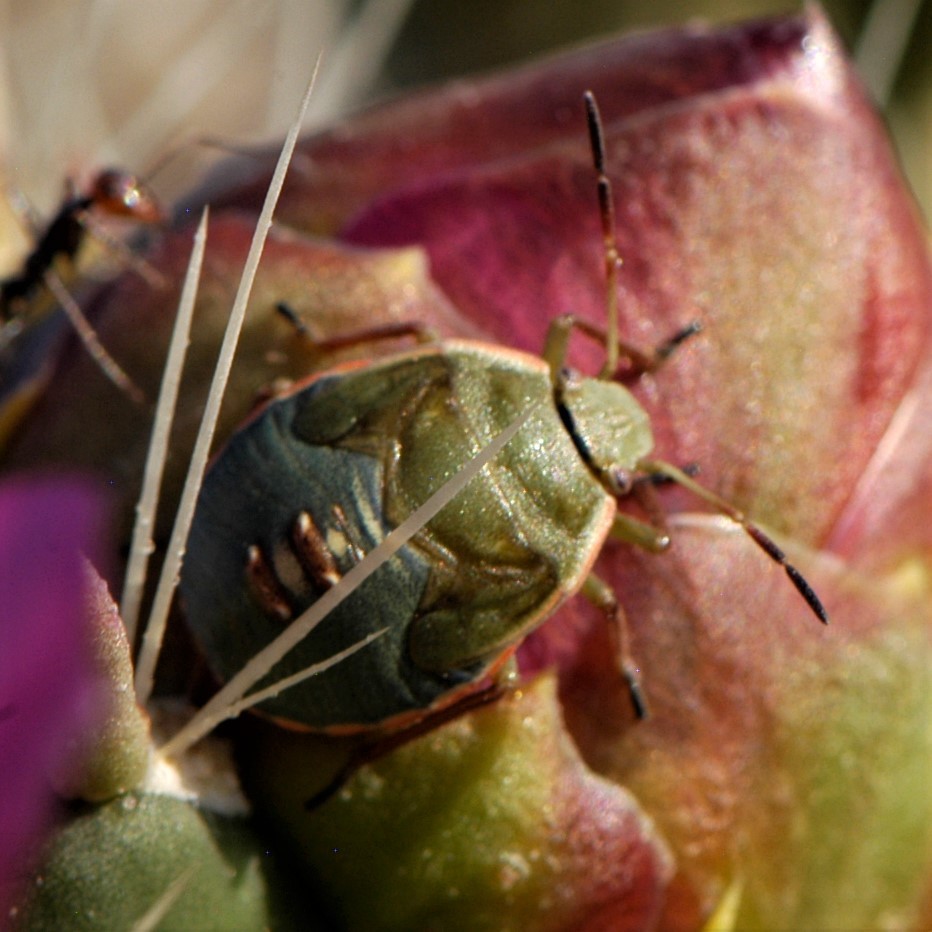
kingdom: Animalia
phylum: Arthropoda
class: Insecta
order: Hemiptera
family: Pentatomidae
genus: Chlorochroa
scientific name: Chlorochroa opuntiae
